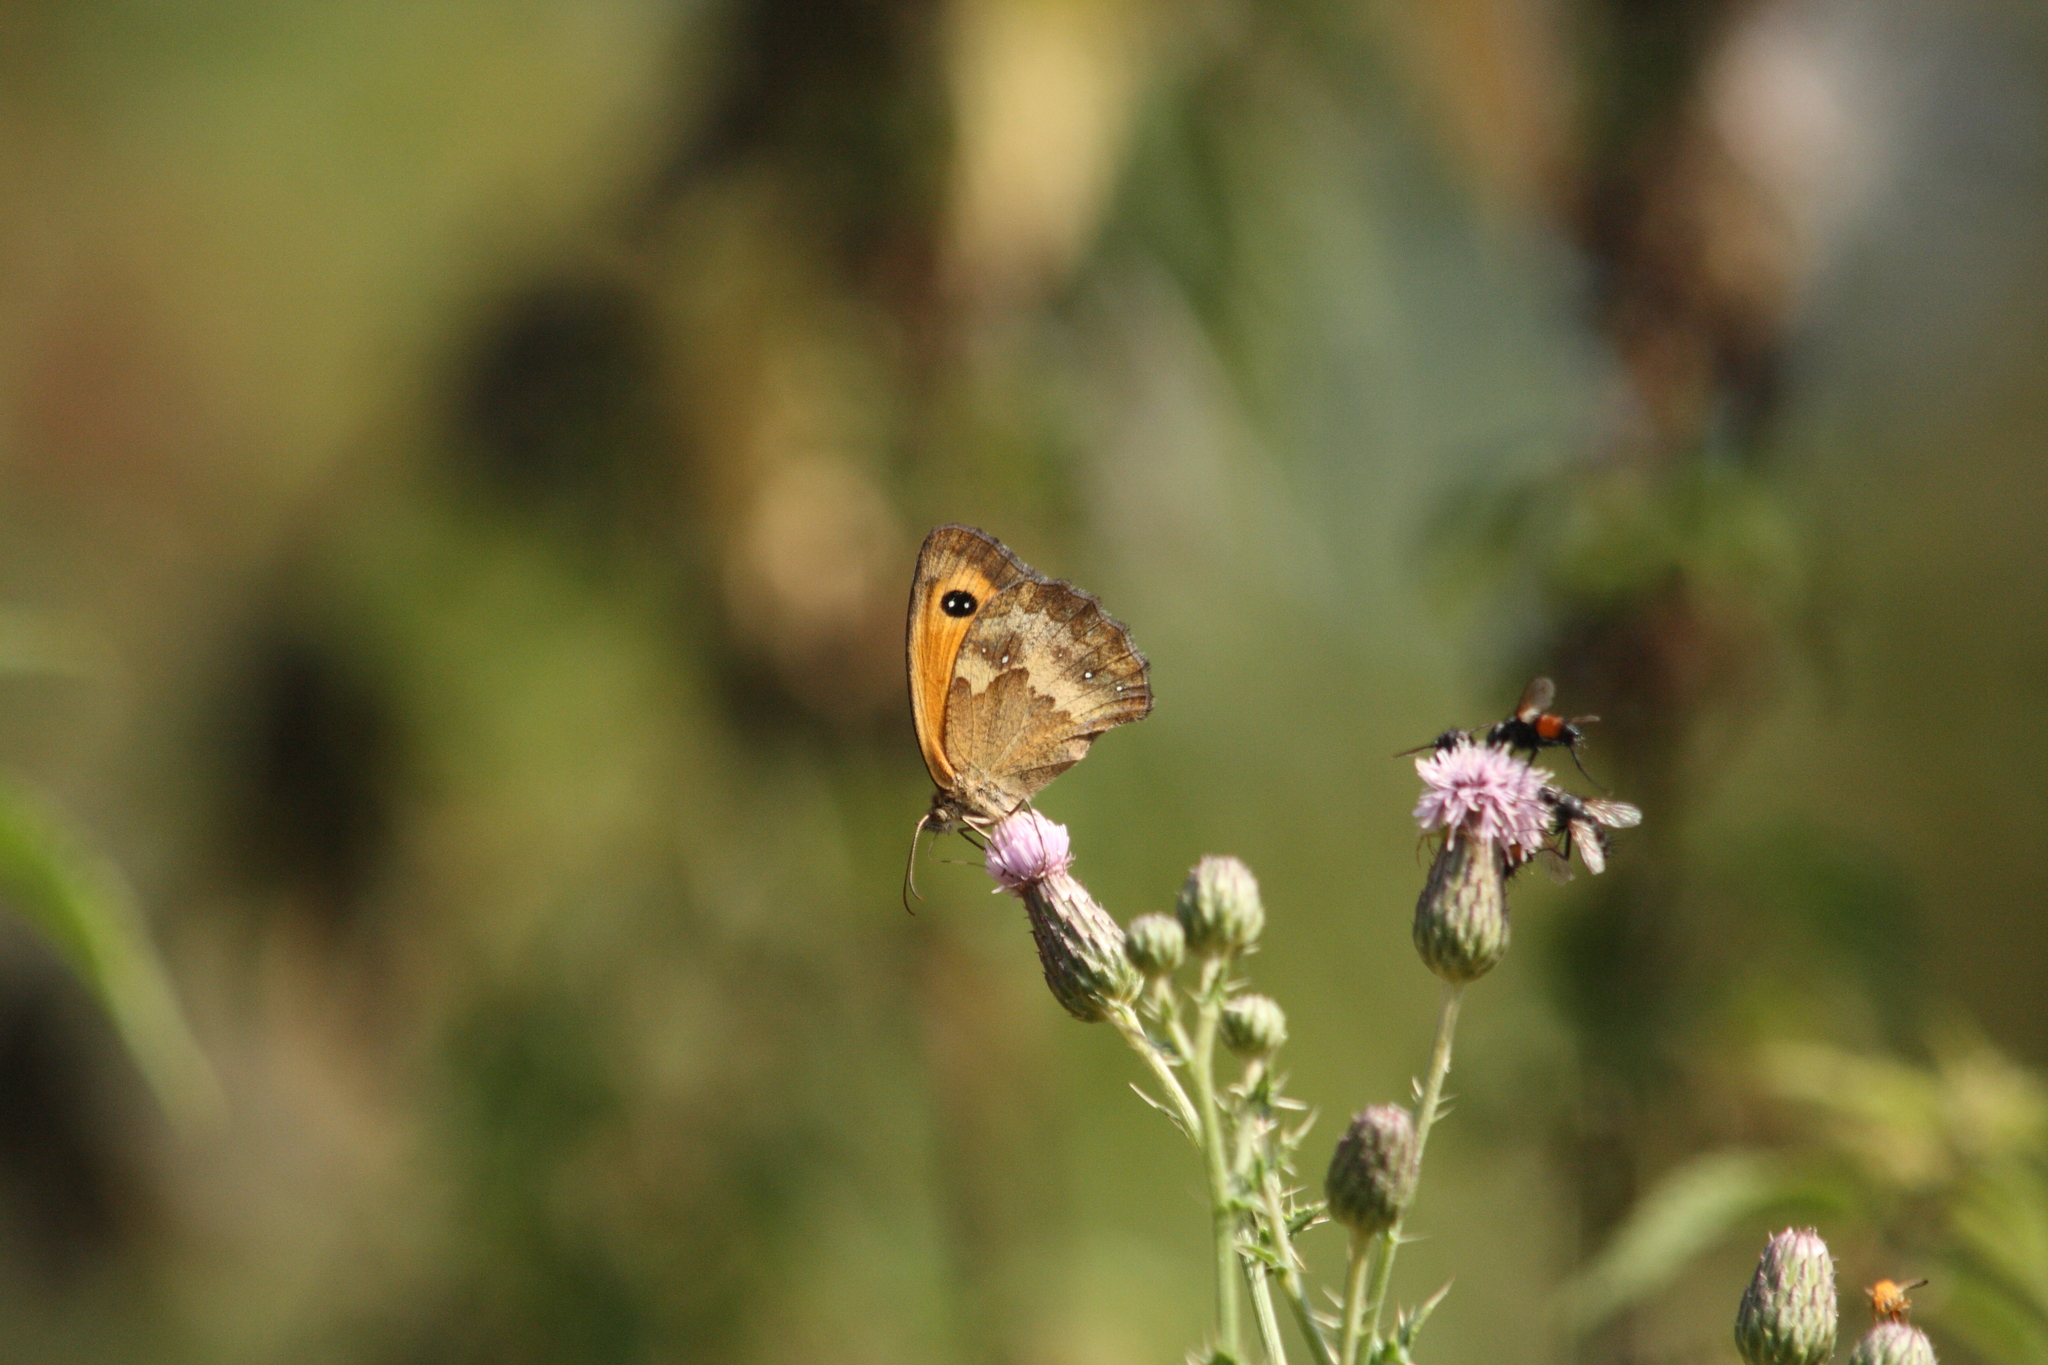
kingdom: Animalia
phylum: Arthropoda
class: Insecta
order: Lepidoptera
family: Nymphalidae
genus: Pyronia
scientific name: Pyronia tithonus
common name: Gatekeeper
